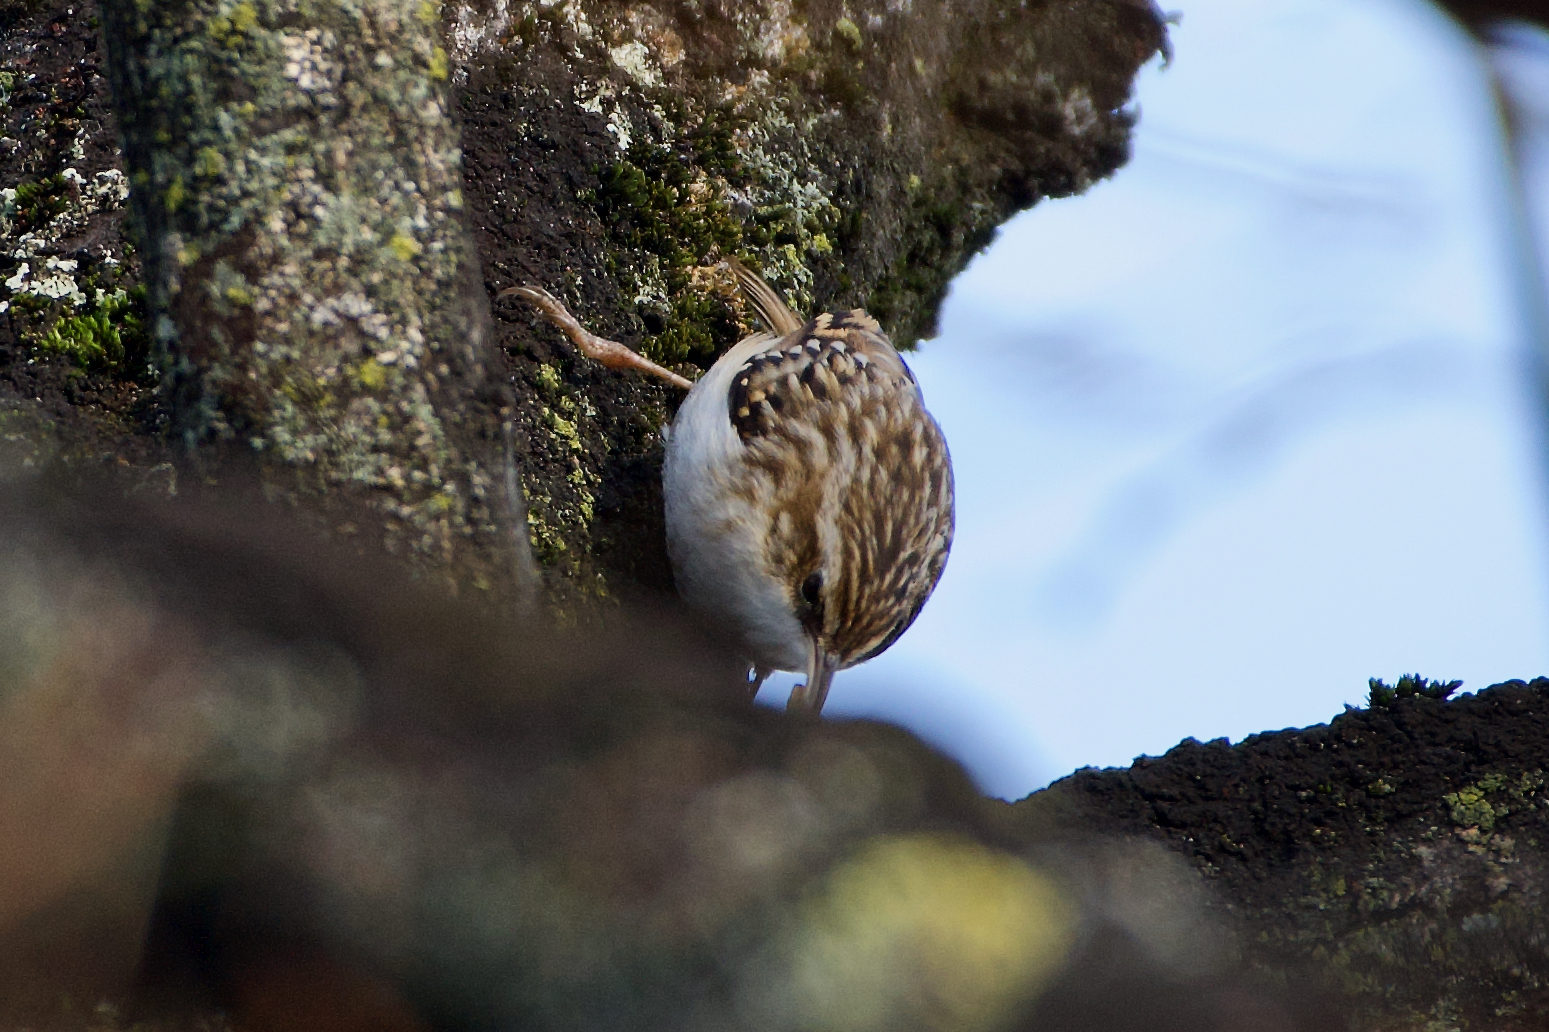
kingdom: Animalia
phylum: Chordata
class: Aves
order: Passeriformes
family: Certhiidae
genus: Certhia
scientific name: Certhia brachydactyla
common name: Short-toed treecreeper
